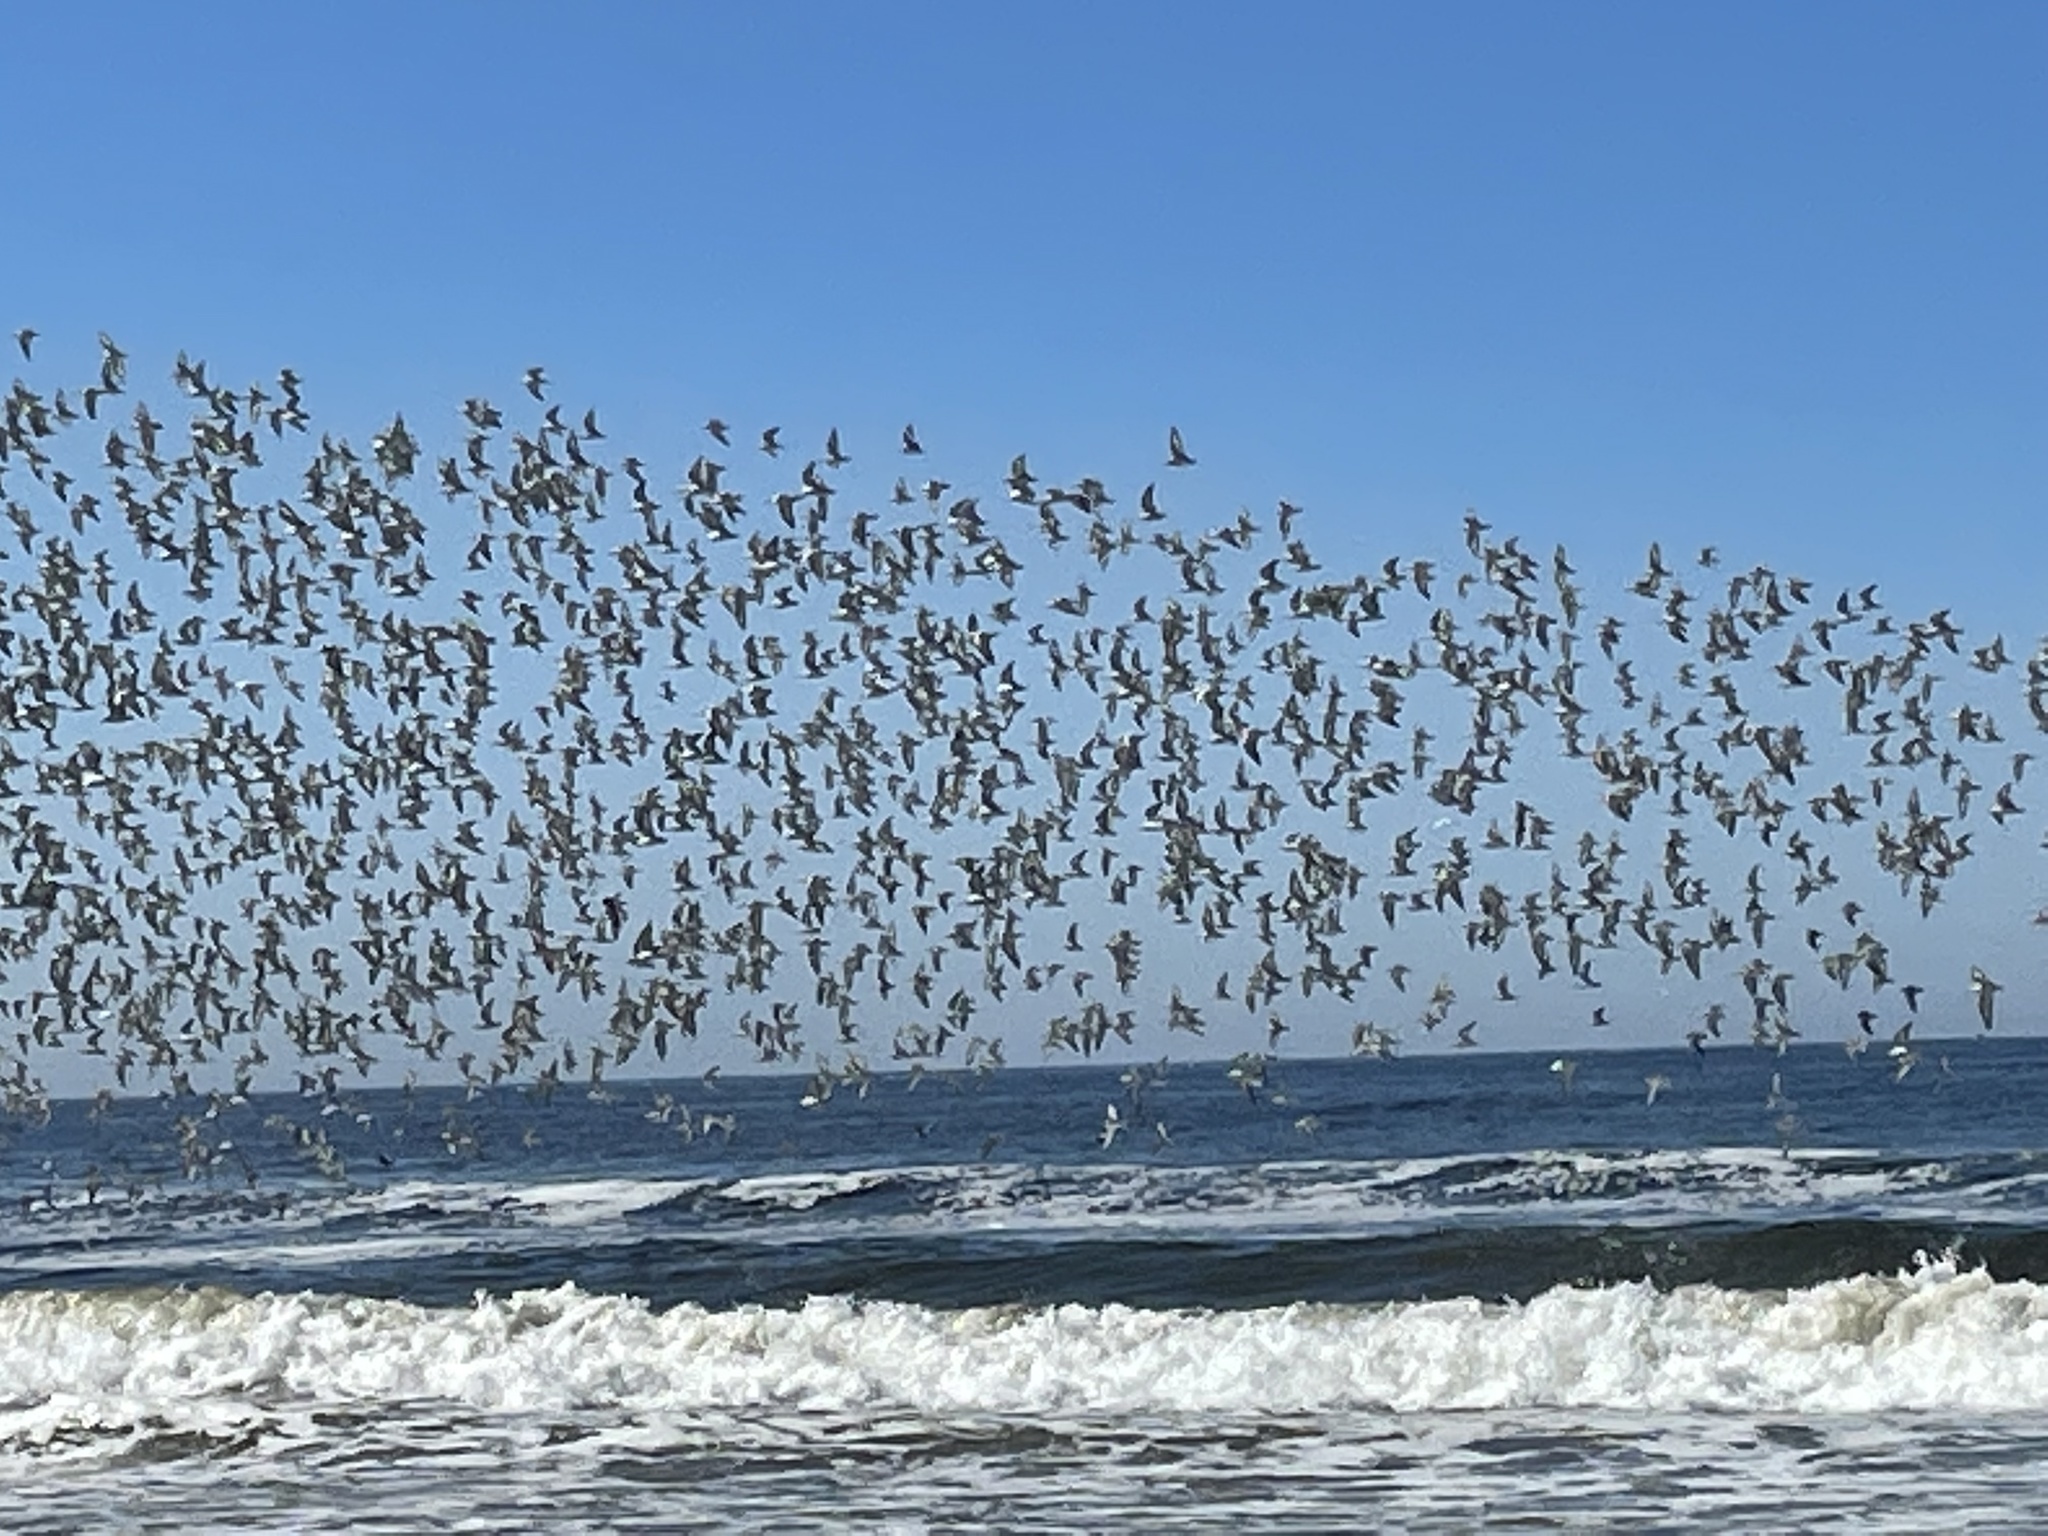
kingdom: Animalia
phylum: Chordata
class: Aves
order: Charadriiformes
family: Scolopacidae
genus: Calidris
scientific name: Calidris alba
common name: Sanderling
